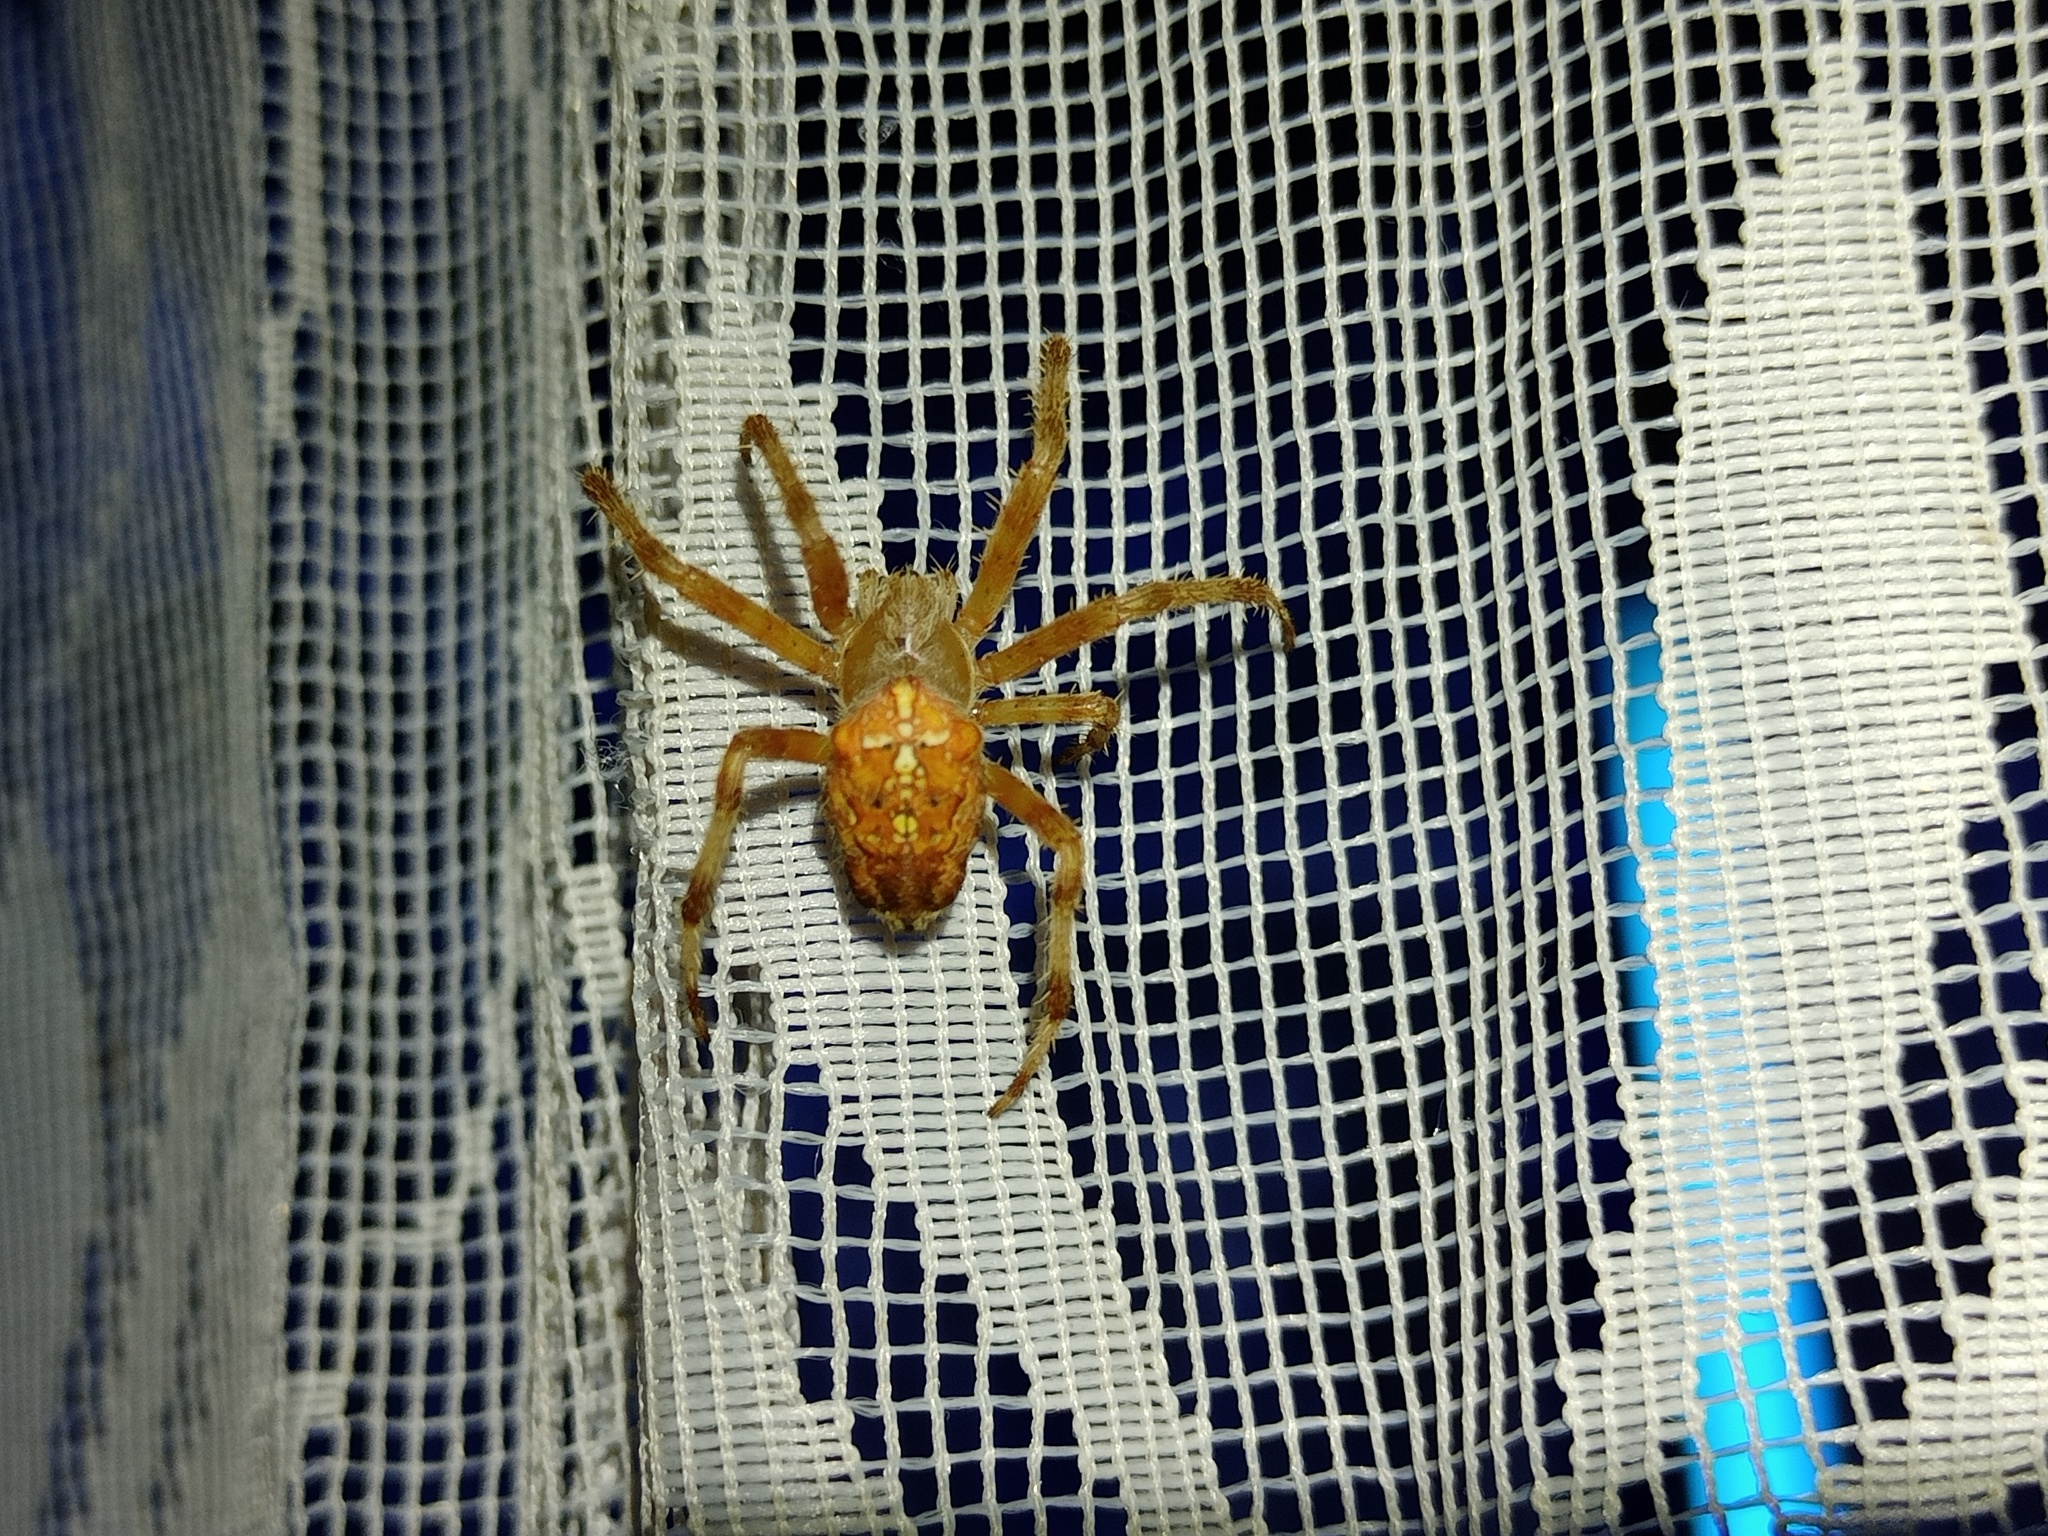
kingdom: Animalia
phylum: Arthropoda
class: Arachnida
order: Araneae
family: Araneidae
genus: Araneus
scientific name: Araneus diadematus
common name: Cross orbweaver
